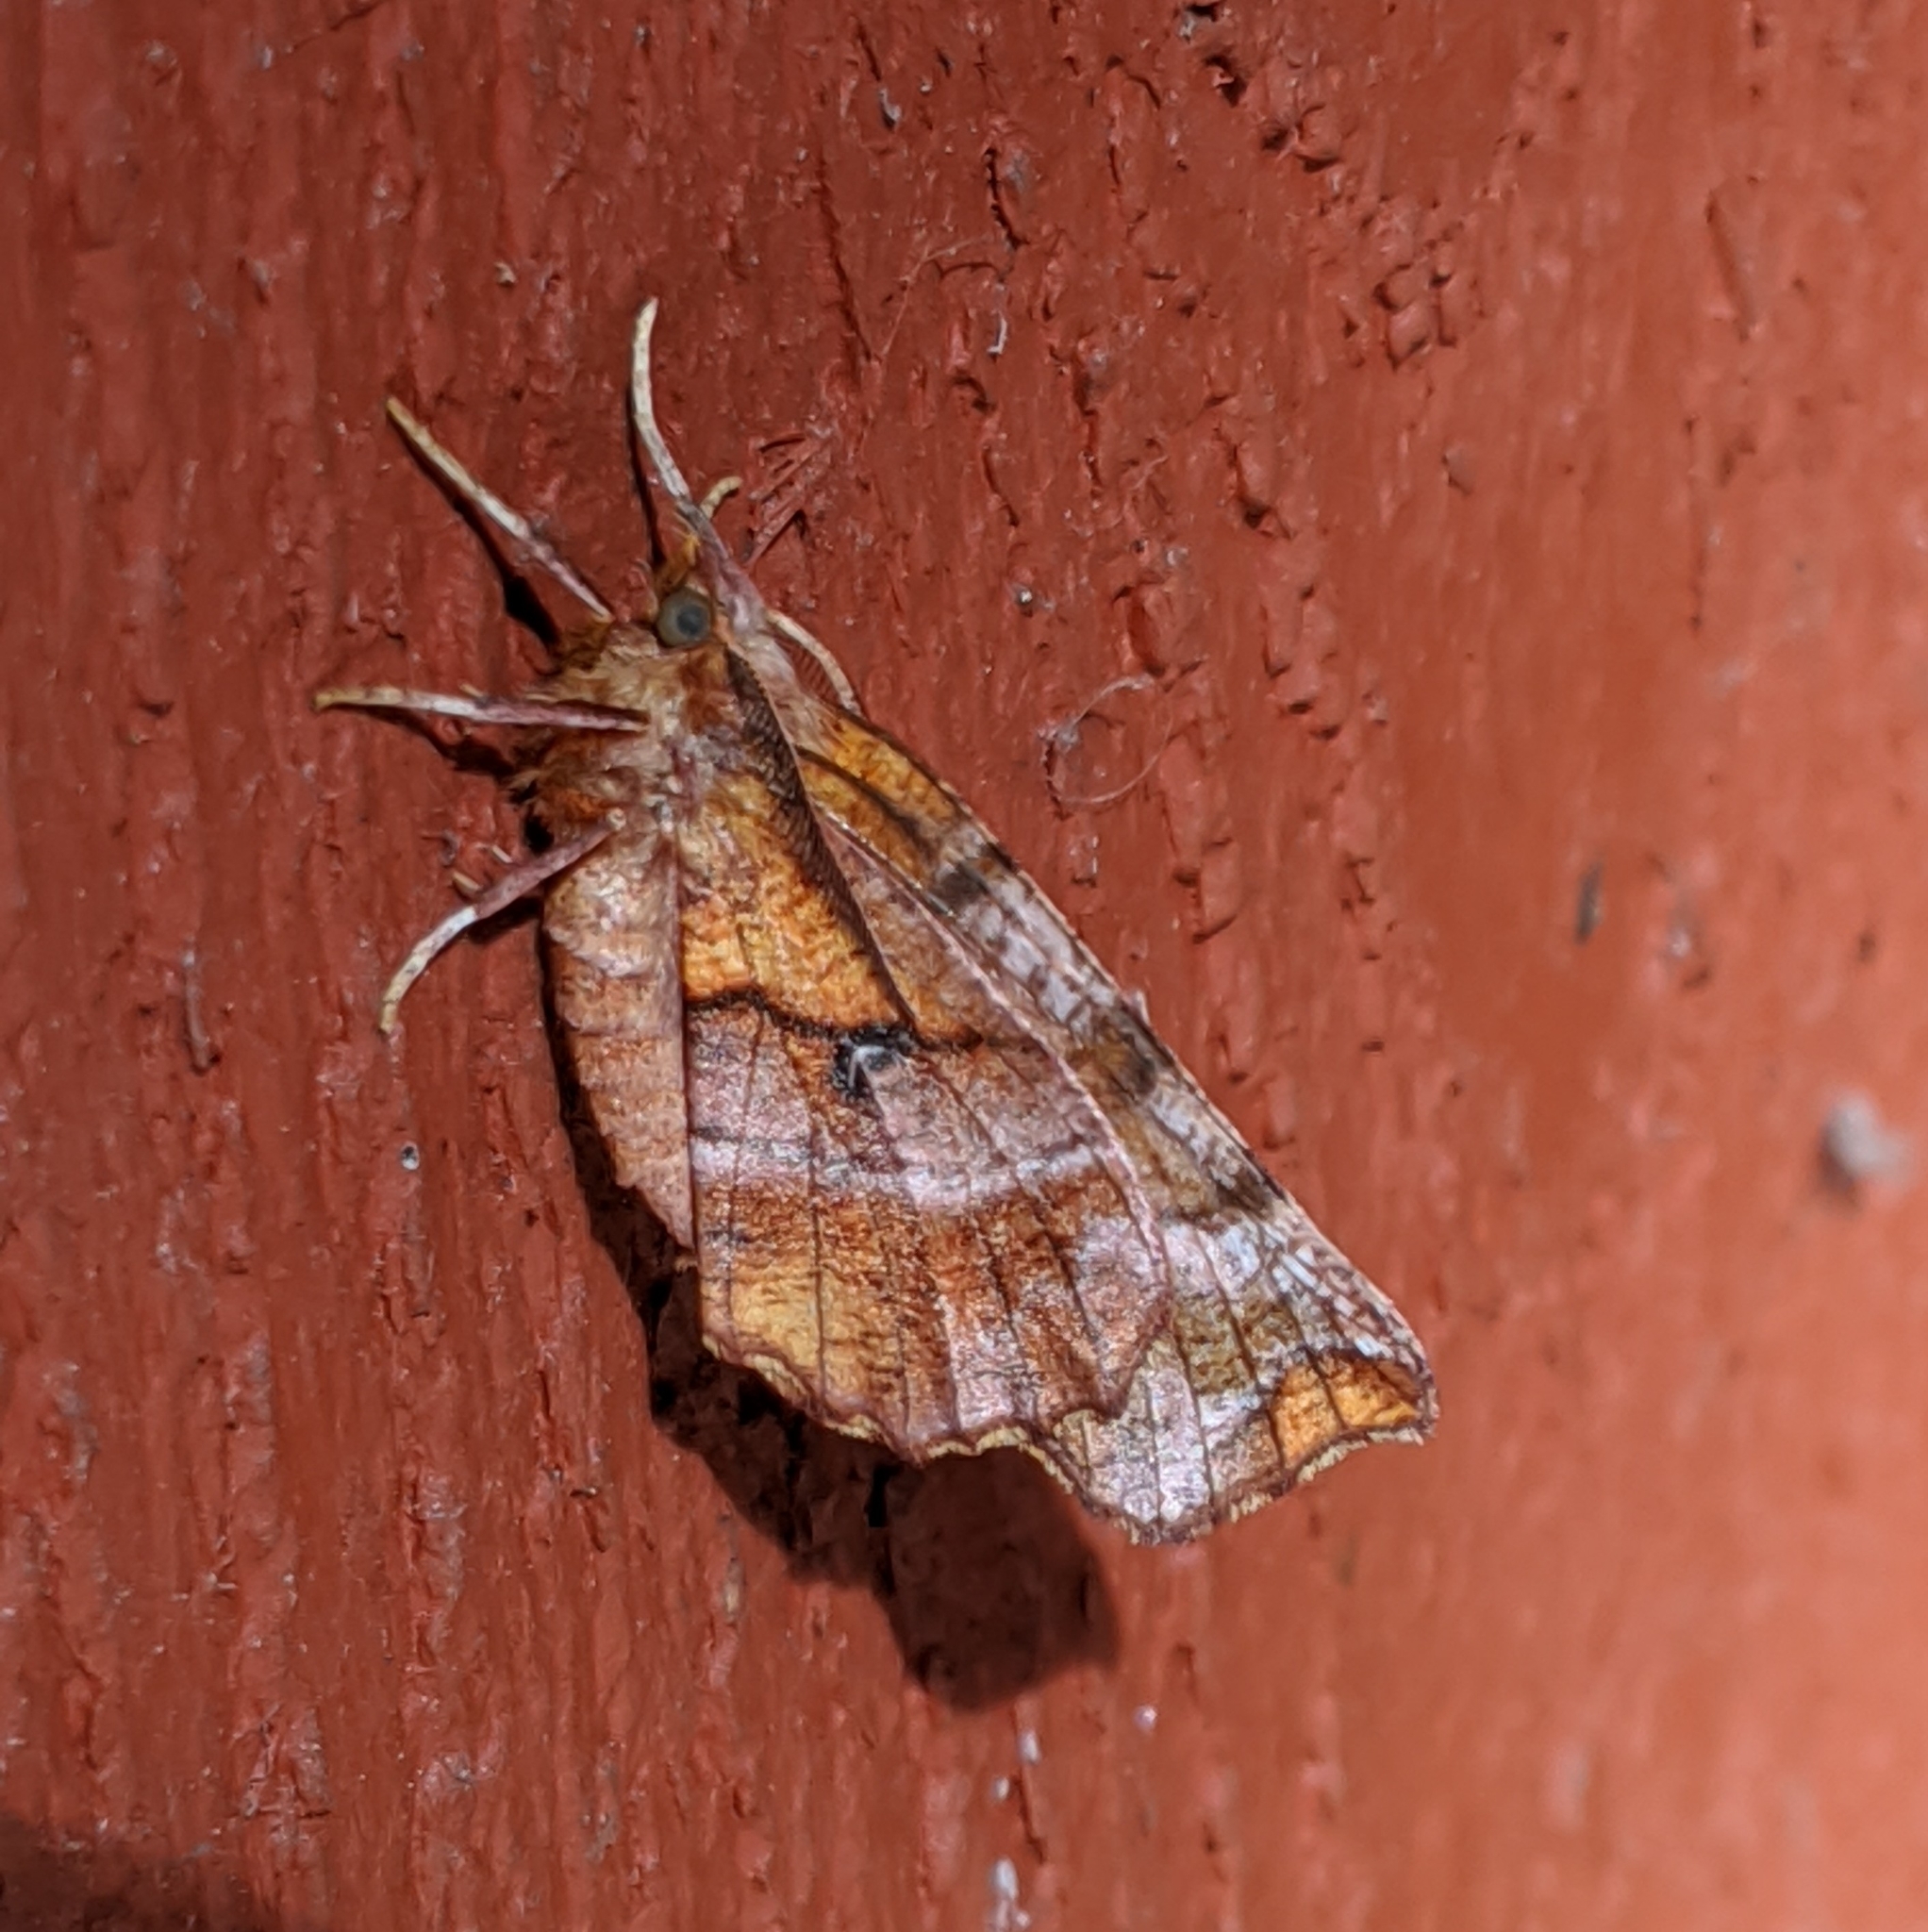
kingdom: Animalia
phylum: Arthropoda
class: Insecta
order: Lepidoptera
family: Geometridae
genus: Selenia
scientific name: Selenia alciphearia
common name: Brown-tipped thorn
